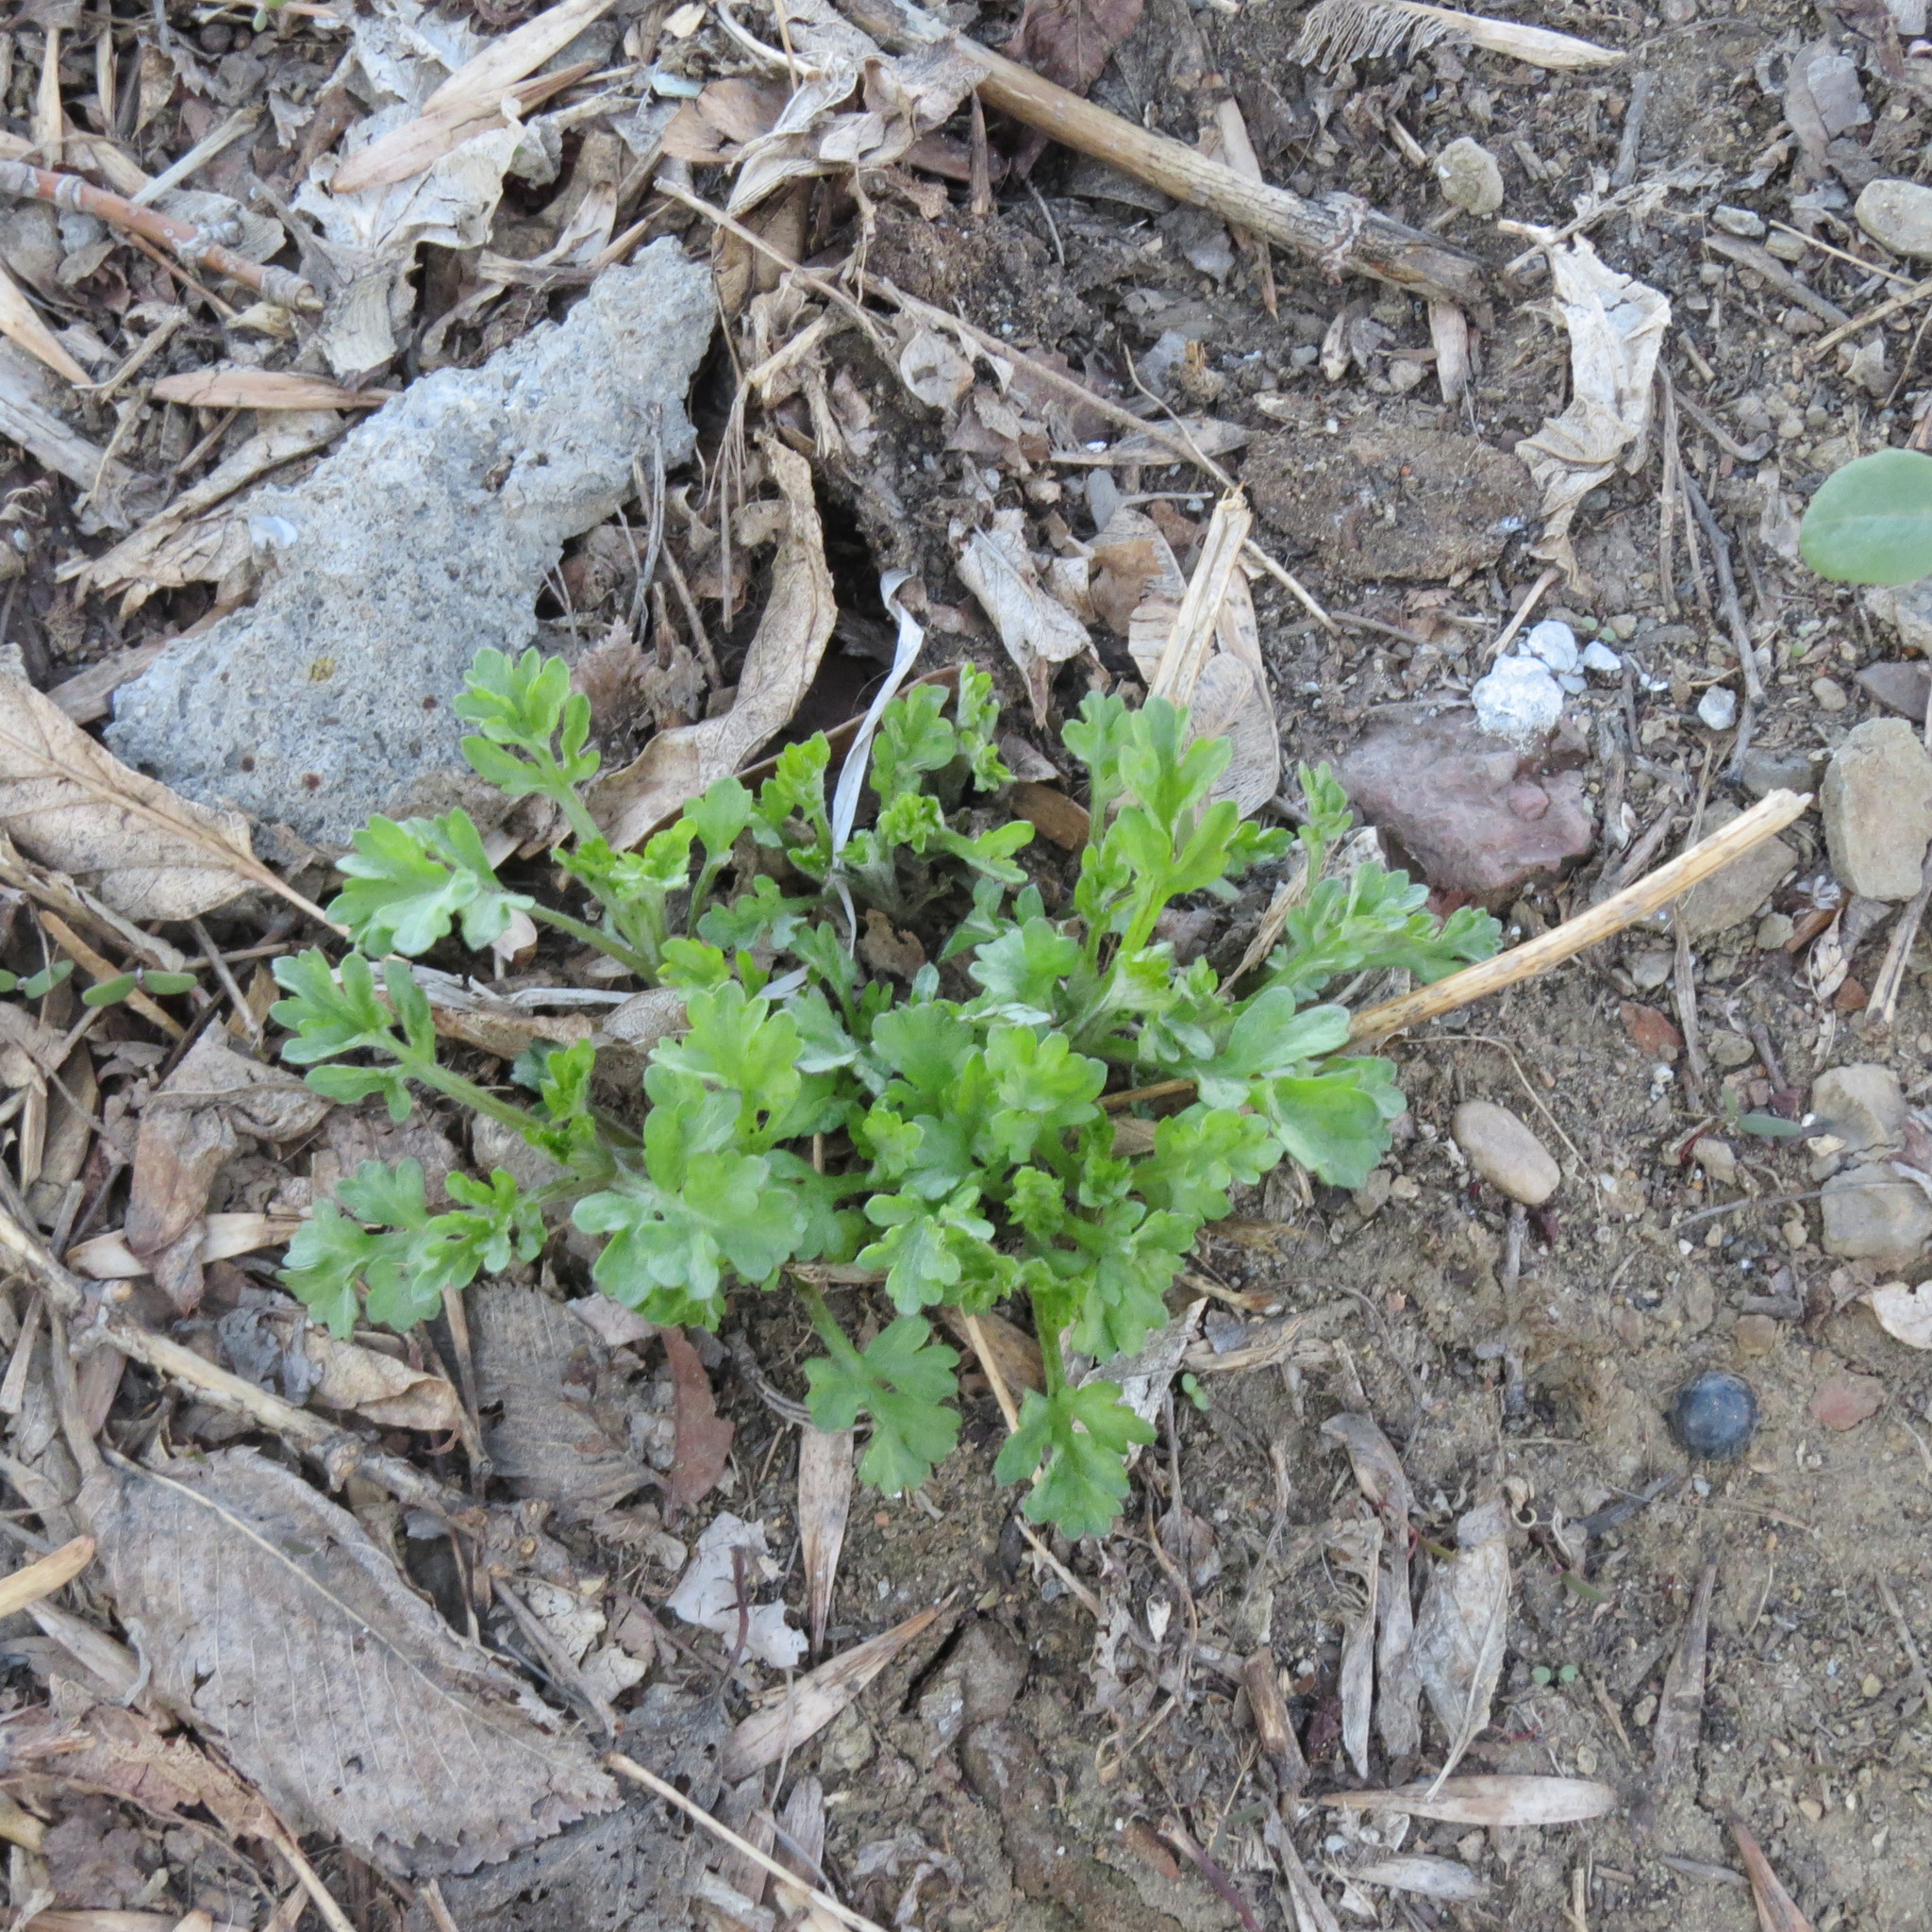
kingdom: Plantae
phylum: Tracheophyta
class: Magnoliopsida
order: Asterales
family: Asteraceae
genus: Artemisia
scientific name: Artemisia vulgaris
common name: Mugwort
